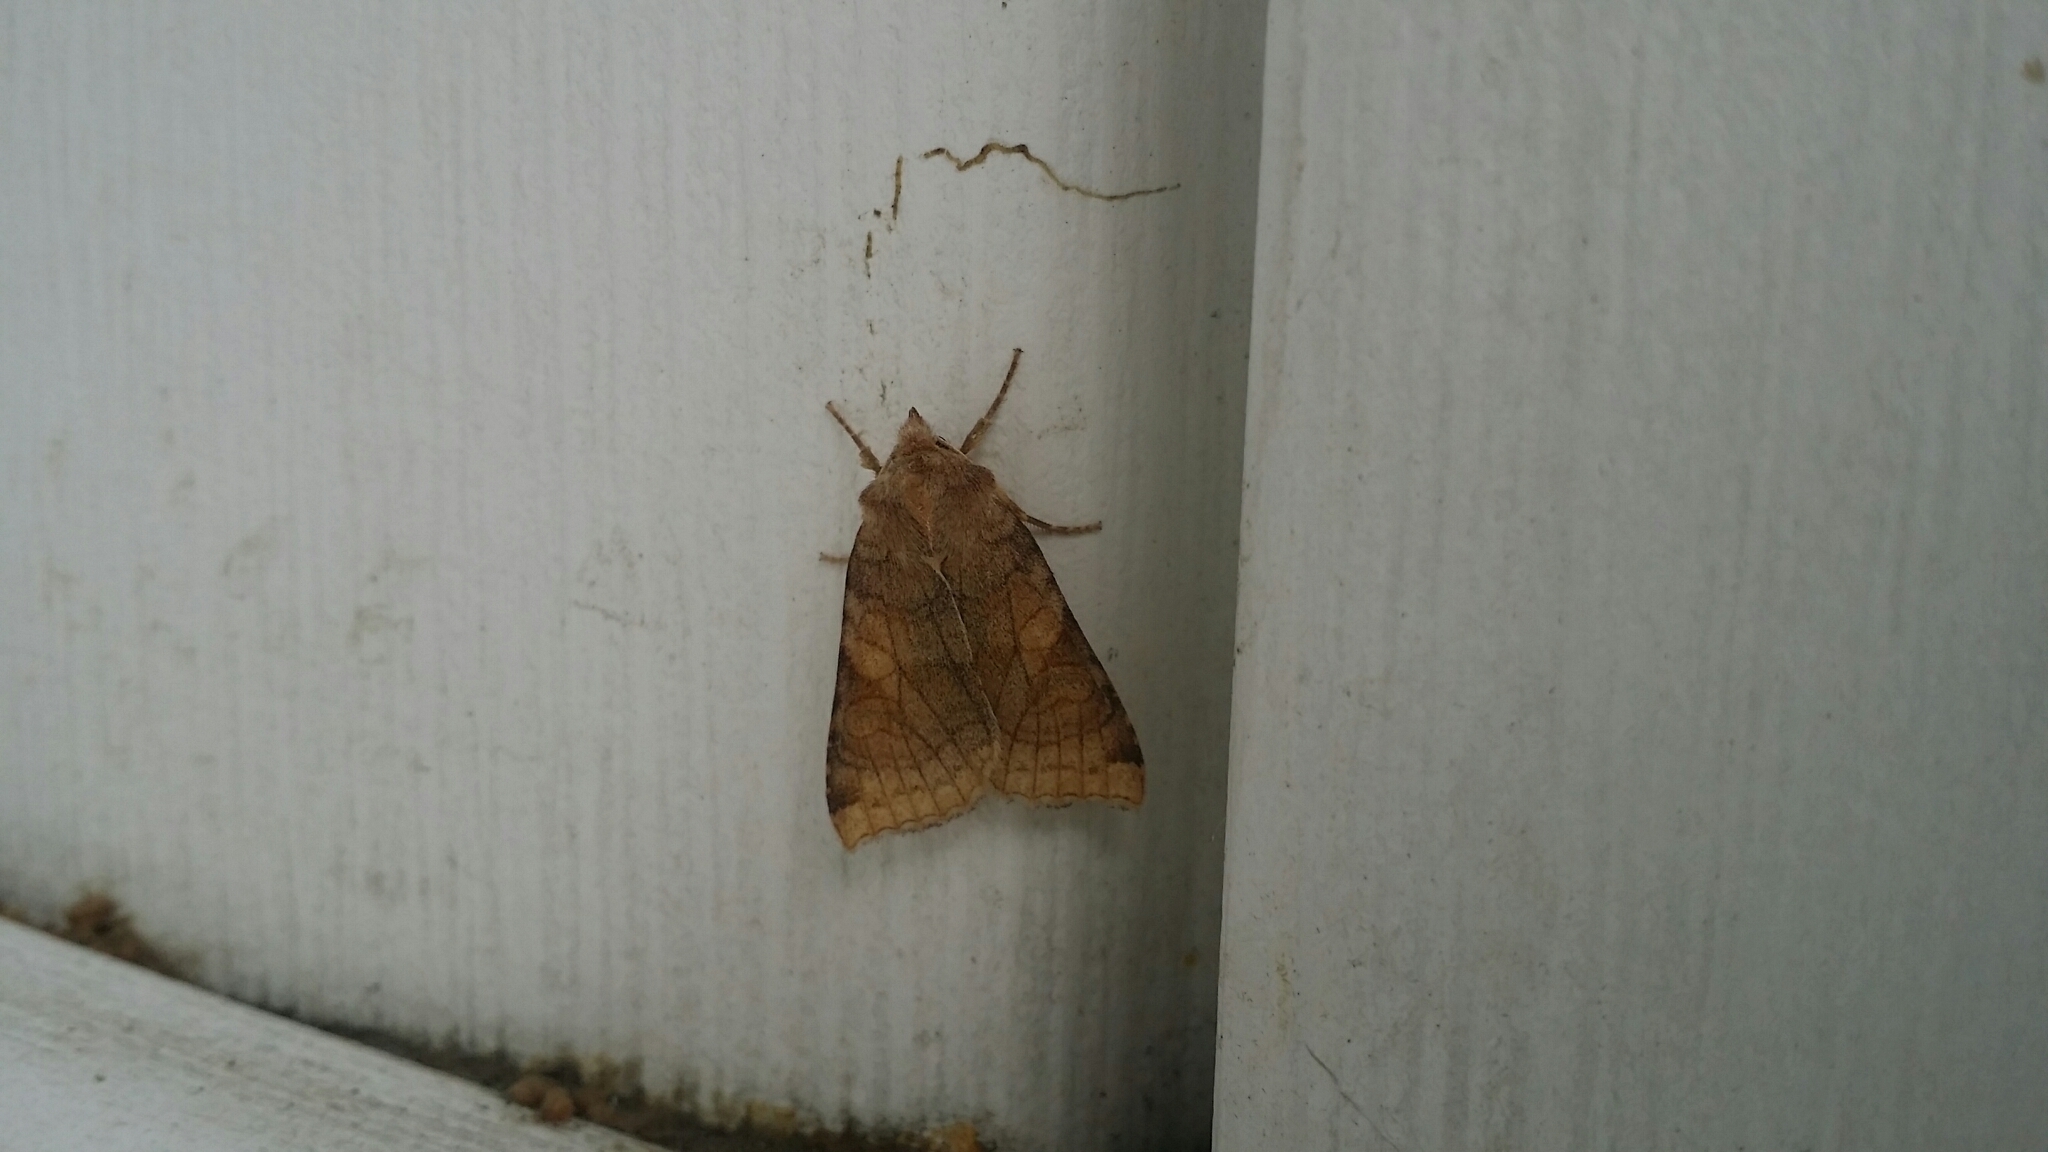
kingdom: Animalia
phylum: Arthropoda
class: Insecta
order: Lepidoptera
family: Noctuidae
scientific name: Noctuidae
